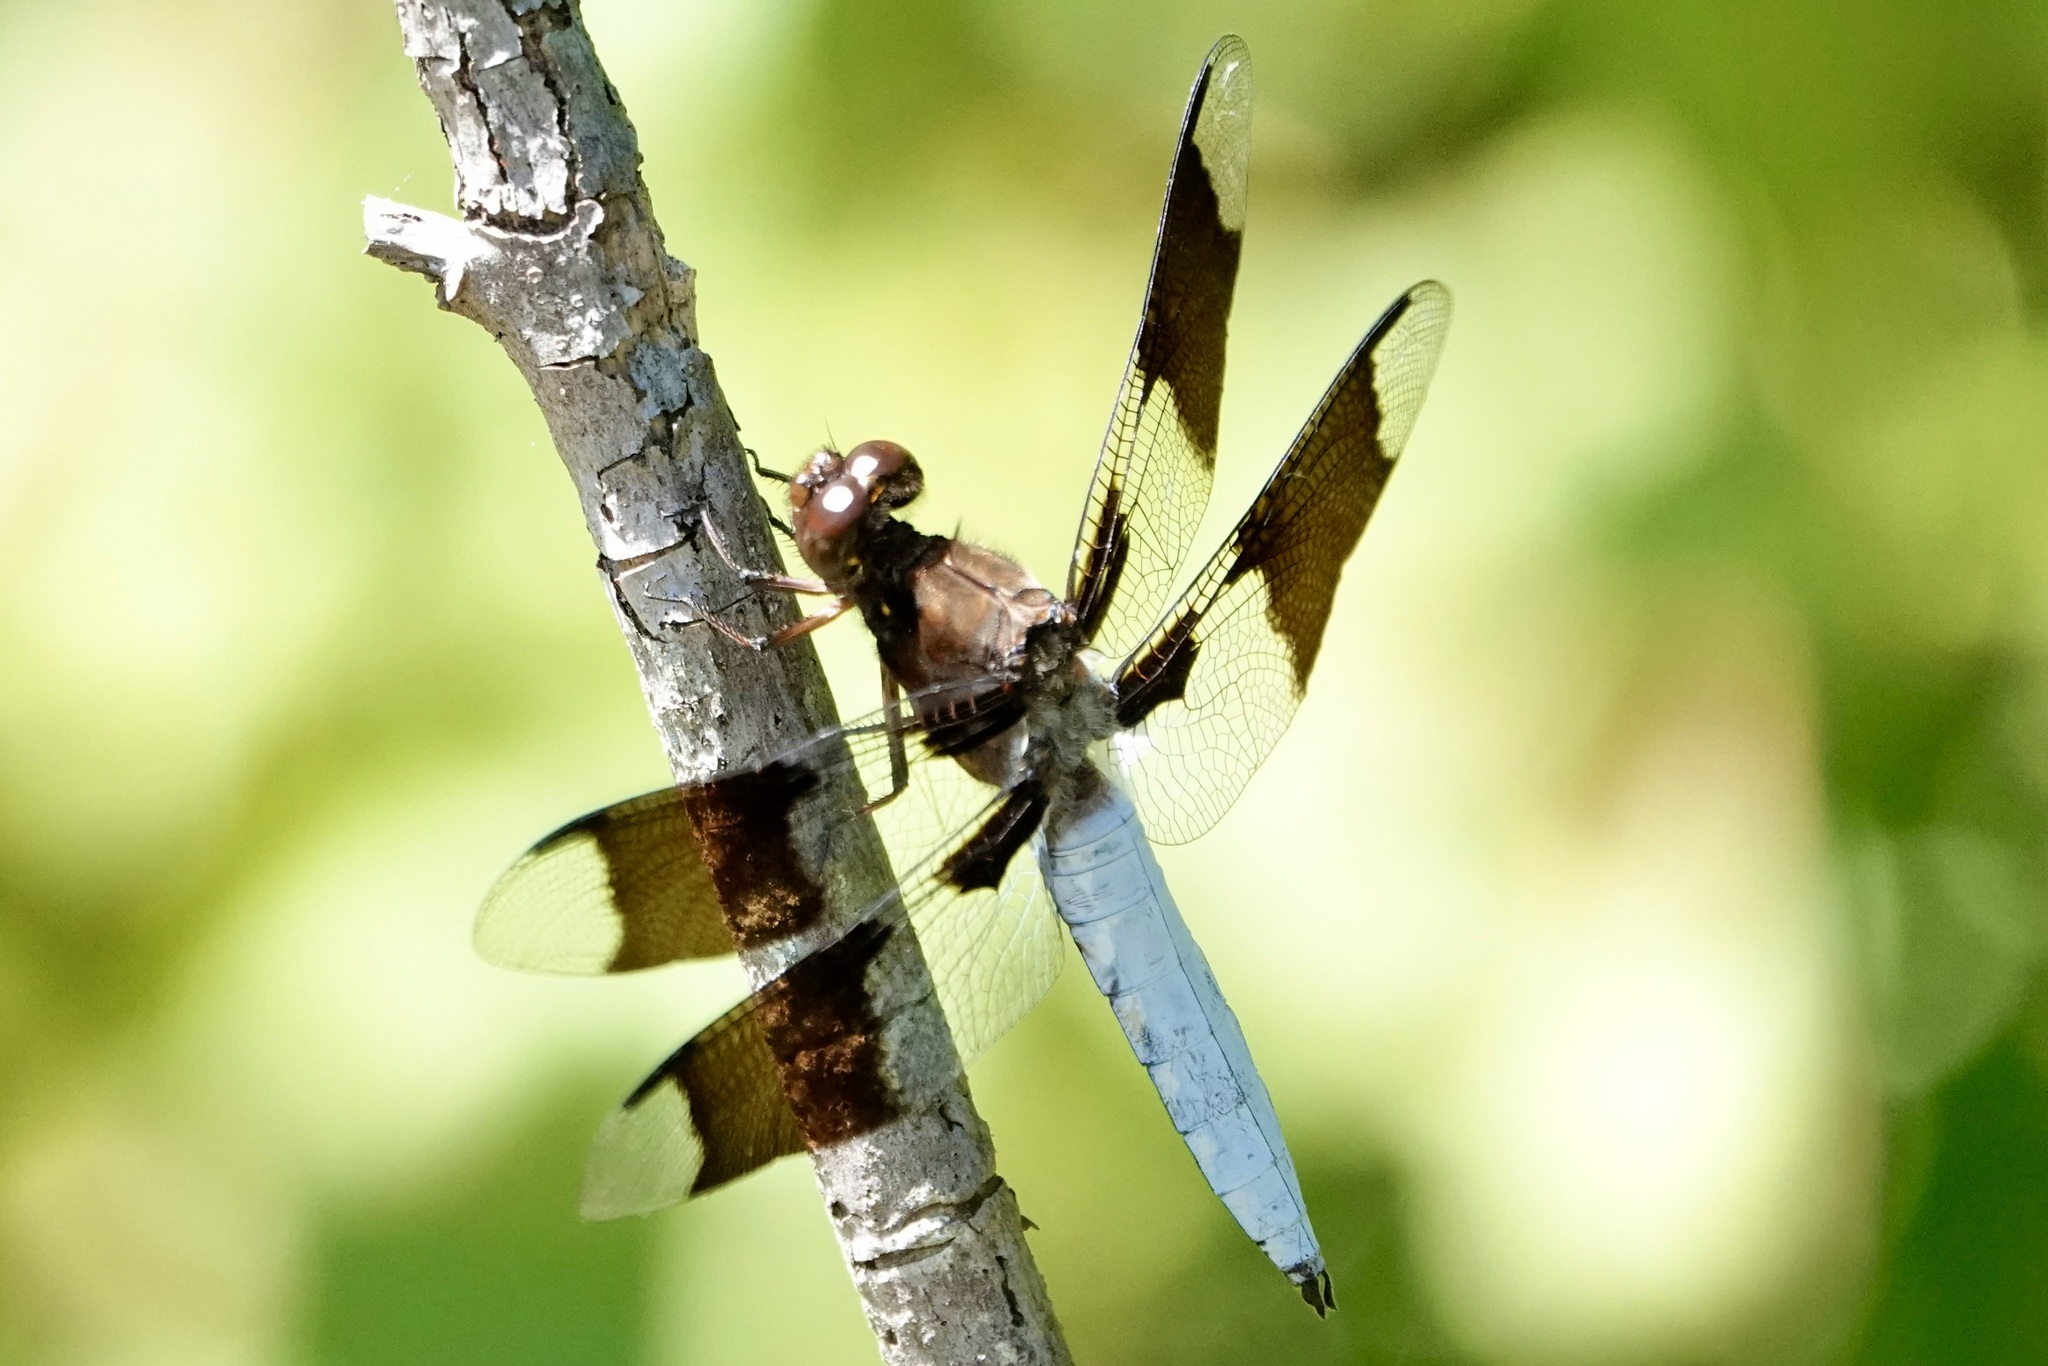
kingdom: Animalia
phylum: Arthropoda
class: Insecta
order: Odonata
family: Libellulidae
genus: Plathemis
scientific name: Plathemis lydia
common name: Common whitetail
